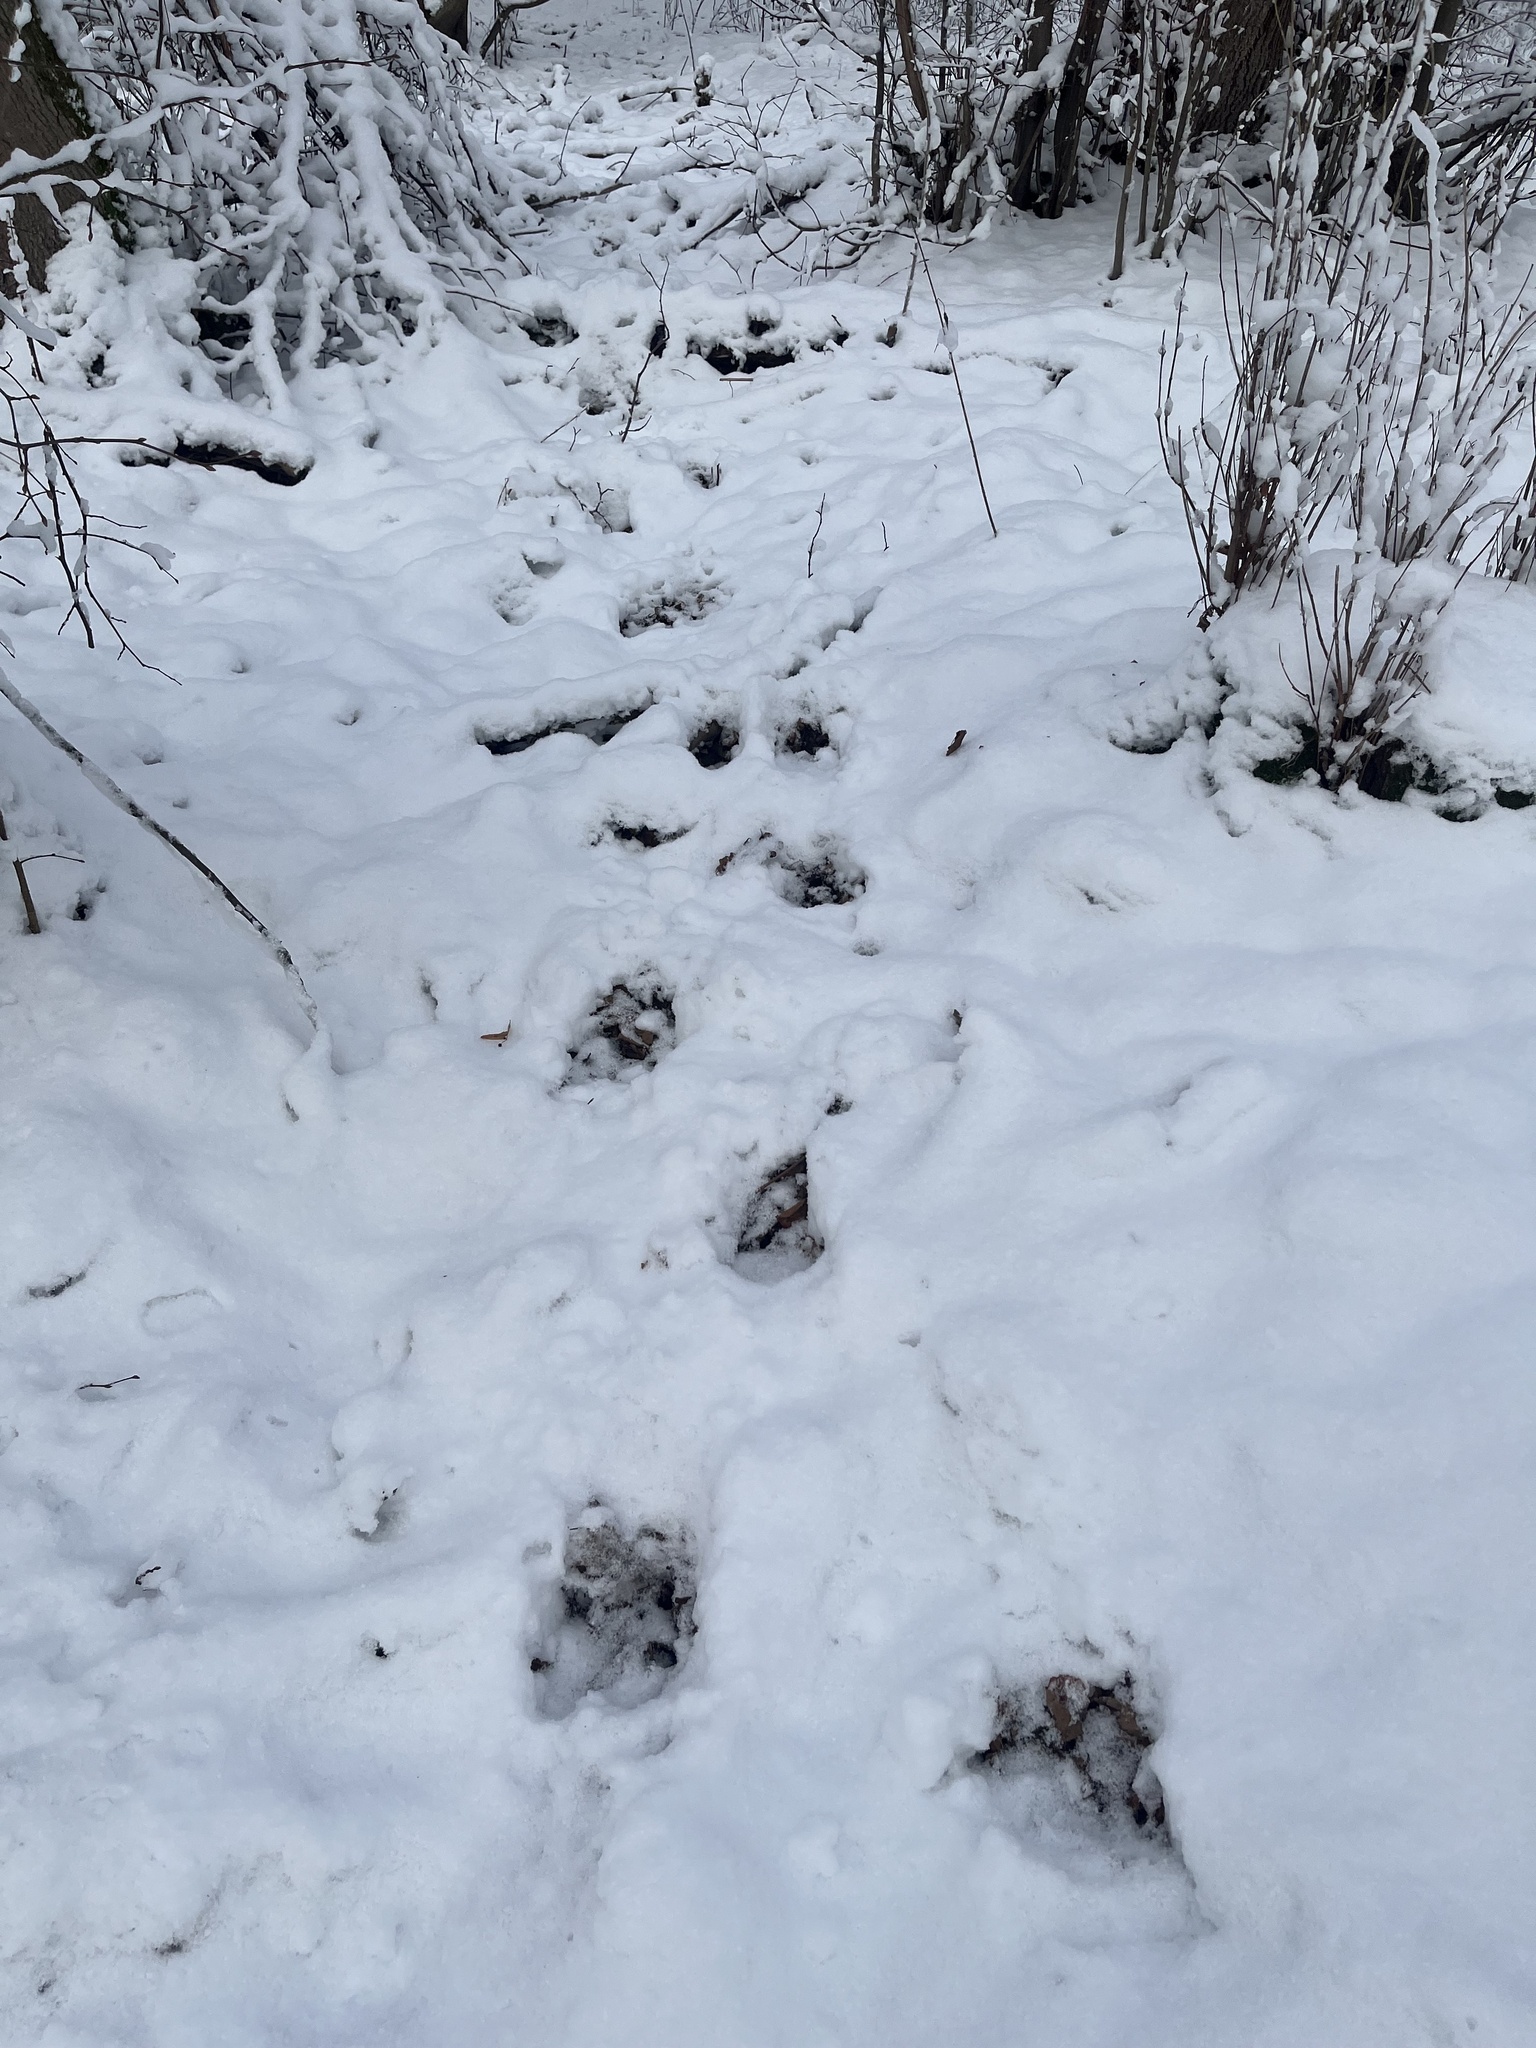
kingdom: Animalia
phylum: Chordata
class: Mammalia
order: Artiodactyla
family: Cervidae
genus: Alces
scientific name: Alces alces
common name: Moose
